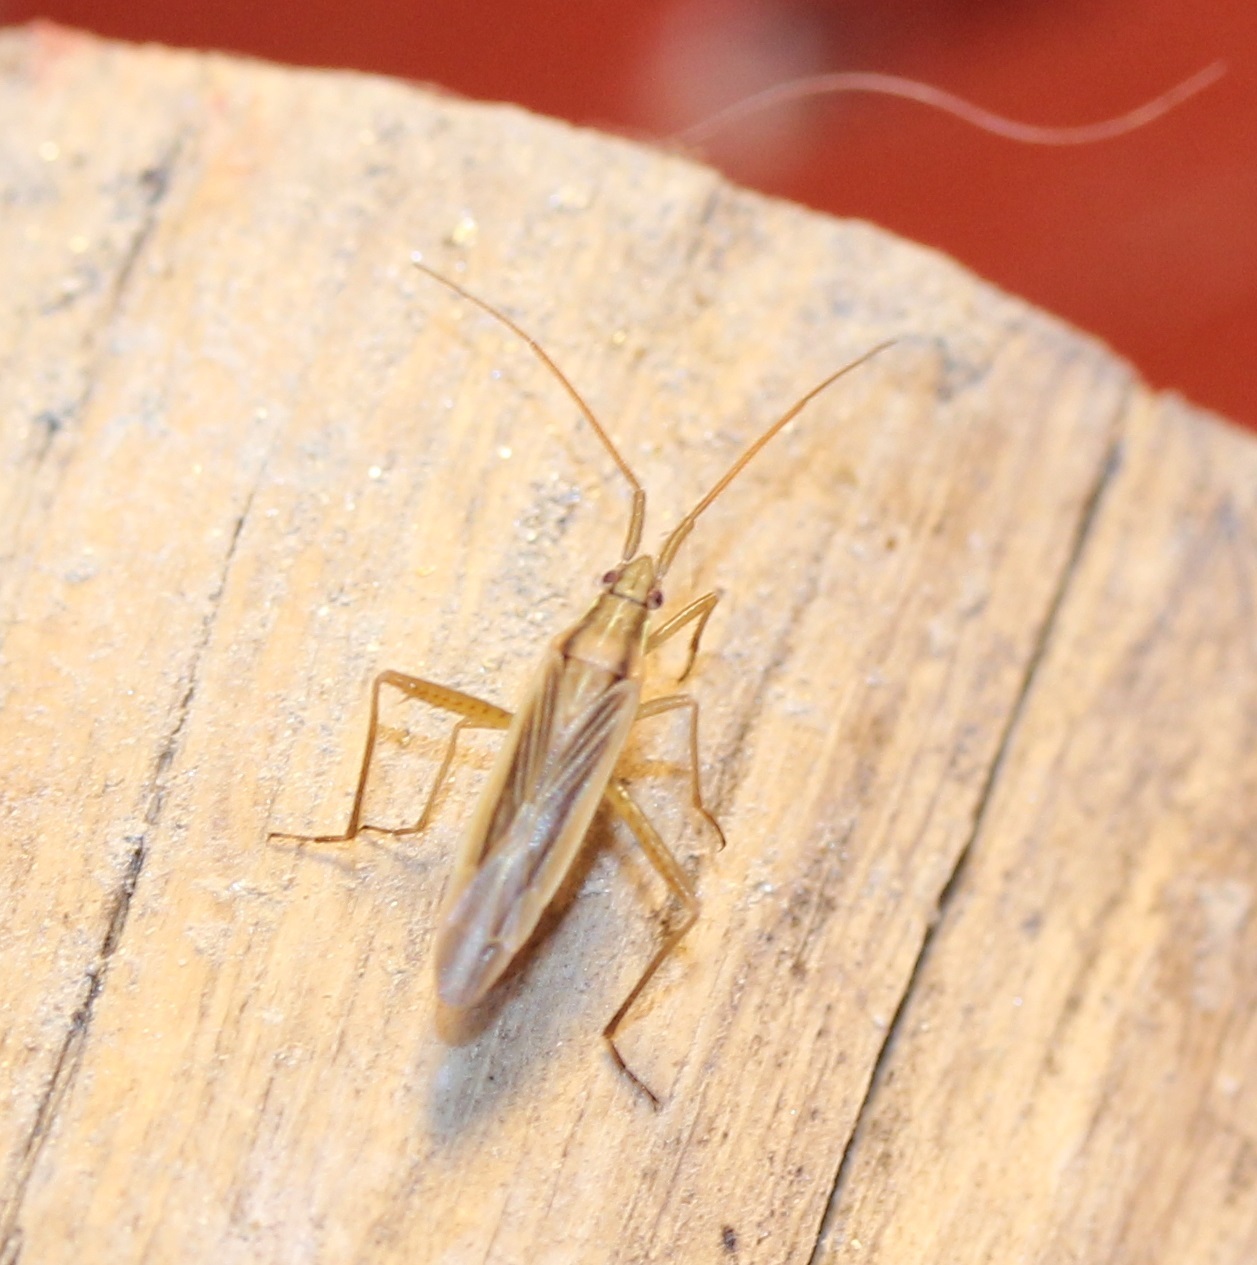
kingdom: Animalia
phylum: Arthropoda
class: Insecta
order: Hemiptera
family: Miridae
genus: Stenodema
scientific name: Stenodema trispinosa
